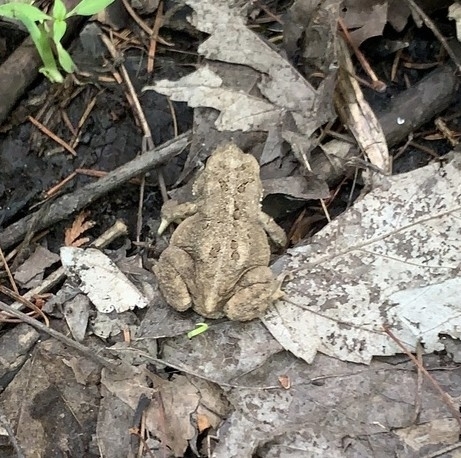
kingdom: Animalia
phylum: Chordata
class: Amphibia
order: Anura
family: Bufonidae
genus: Anaxyrus
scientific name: Anaxyrus americanus
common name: American toad
